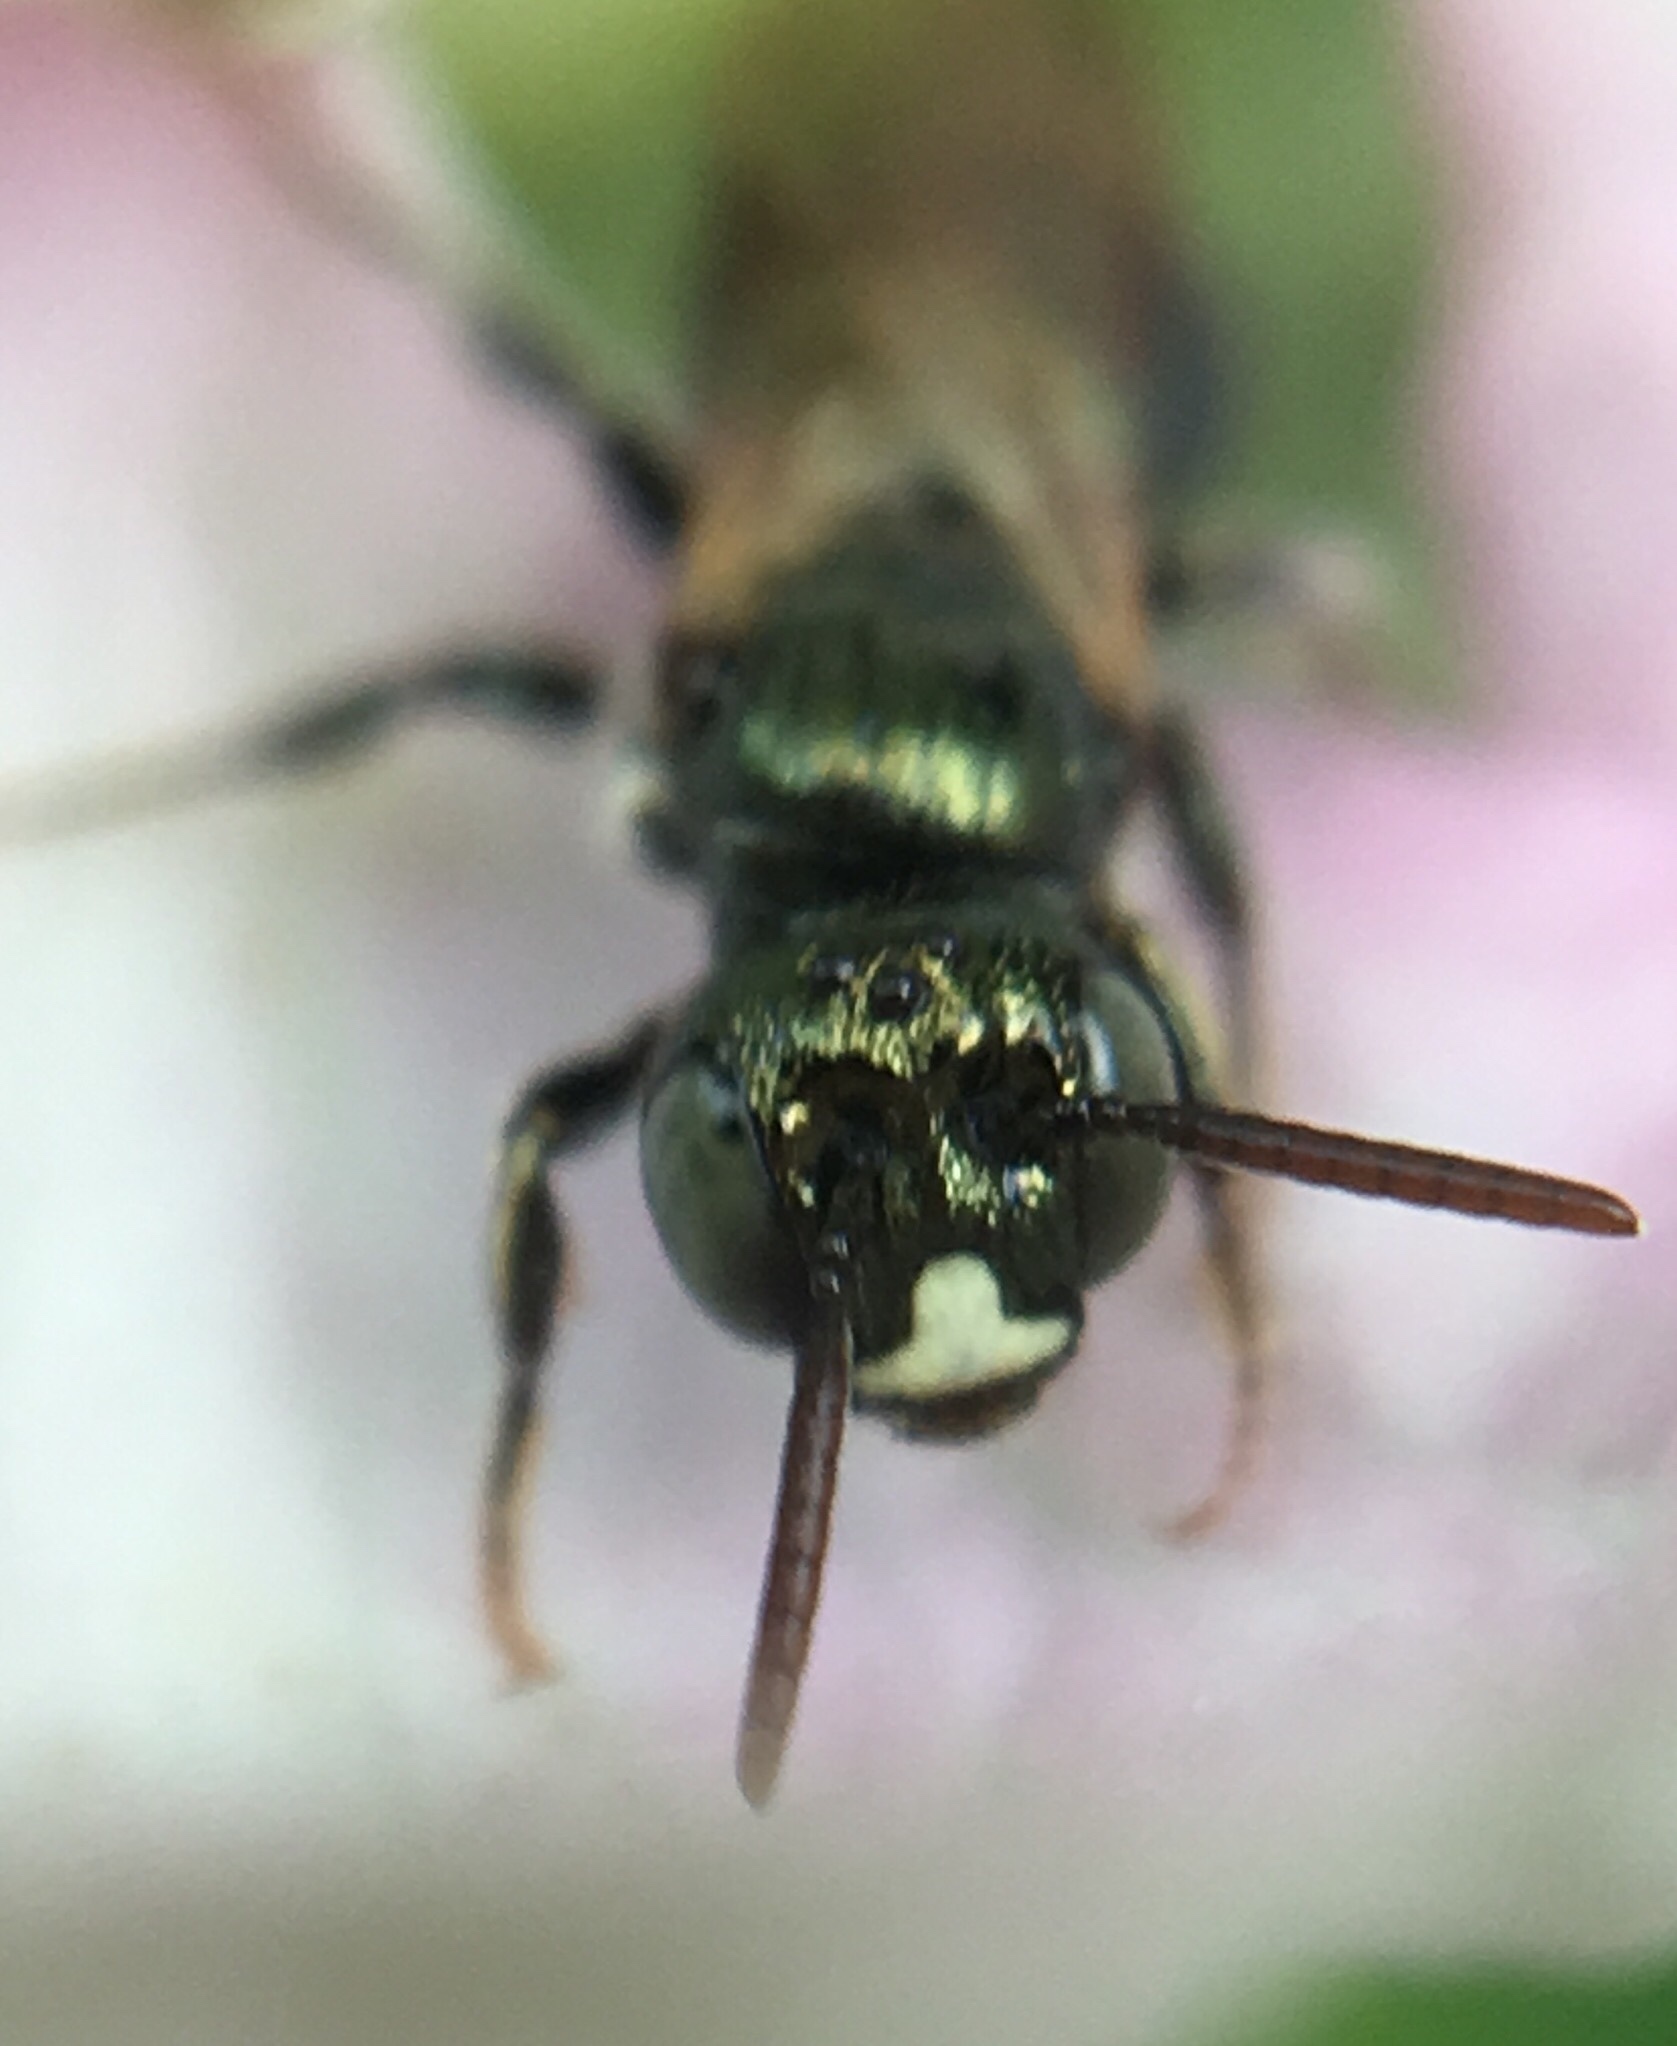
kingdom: Animalia
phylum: Arthropoda
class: Insecta
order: Hymenoptera
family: Apidae
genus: Ceratina
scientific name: Ceratina strenua
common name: Nimble carpenter bee
